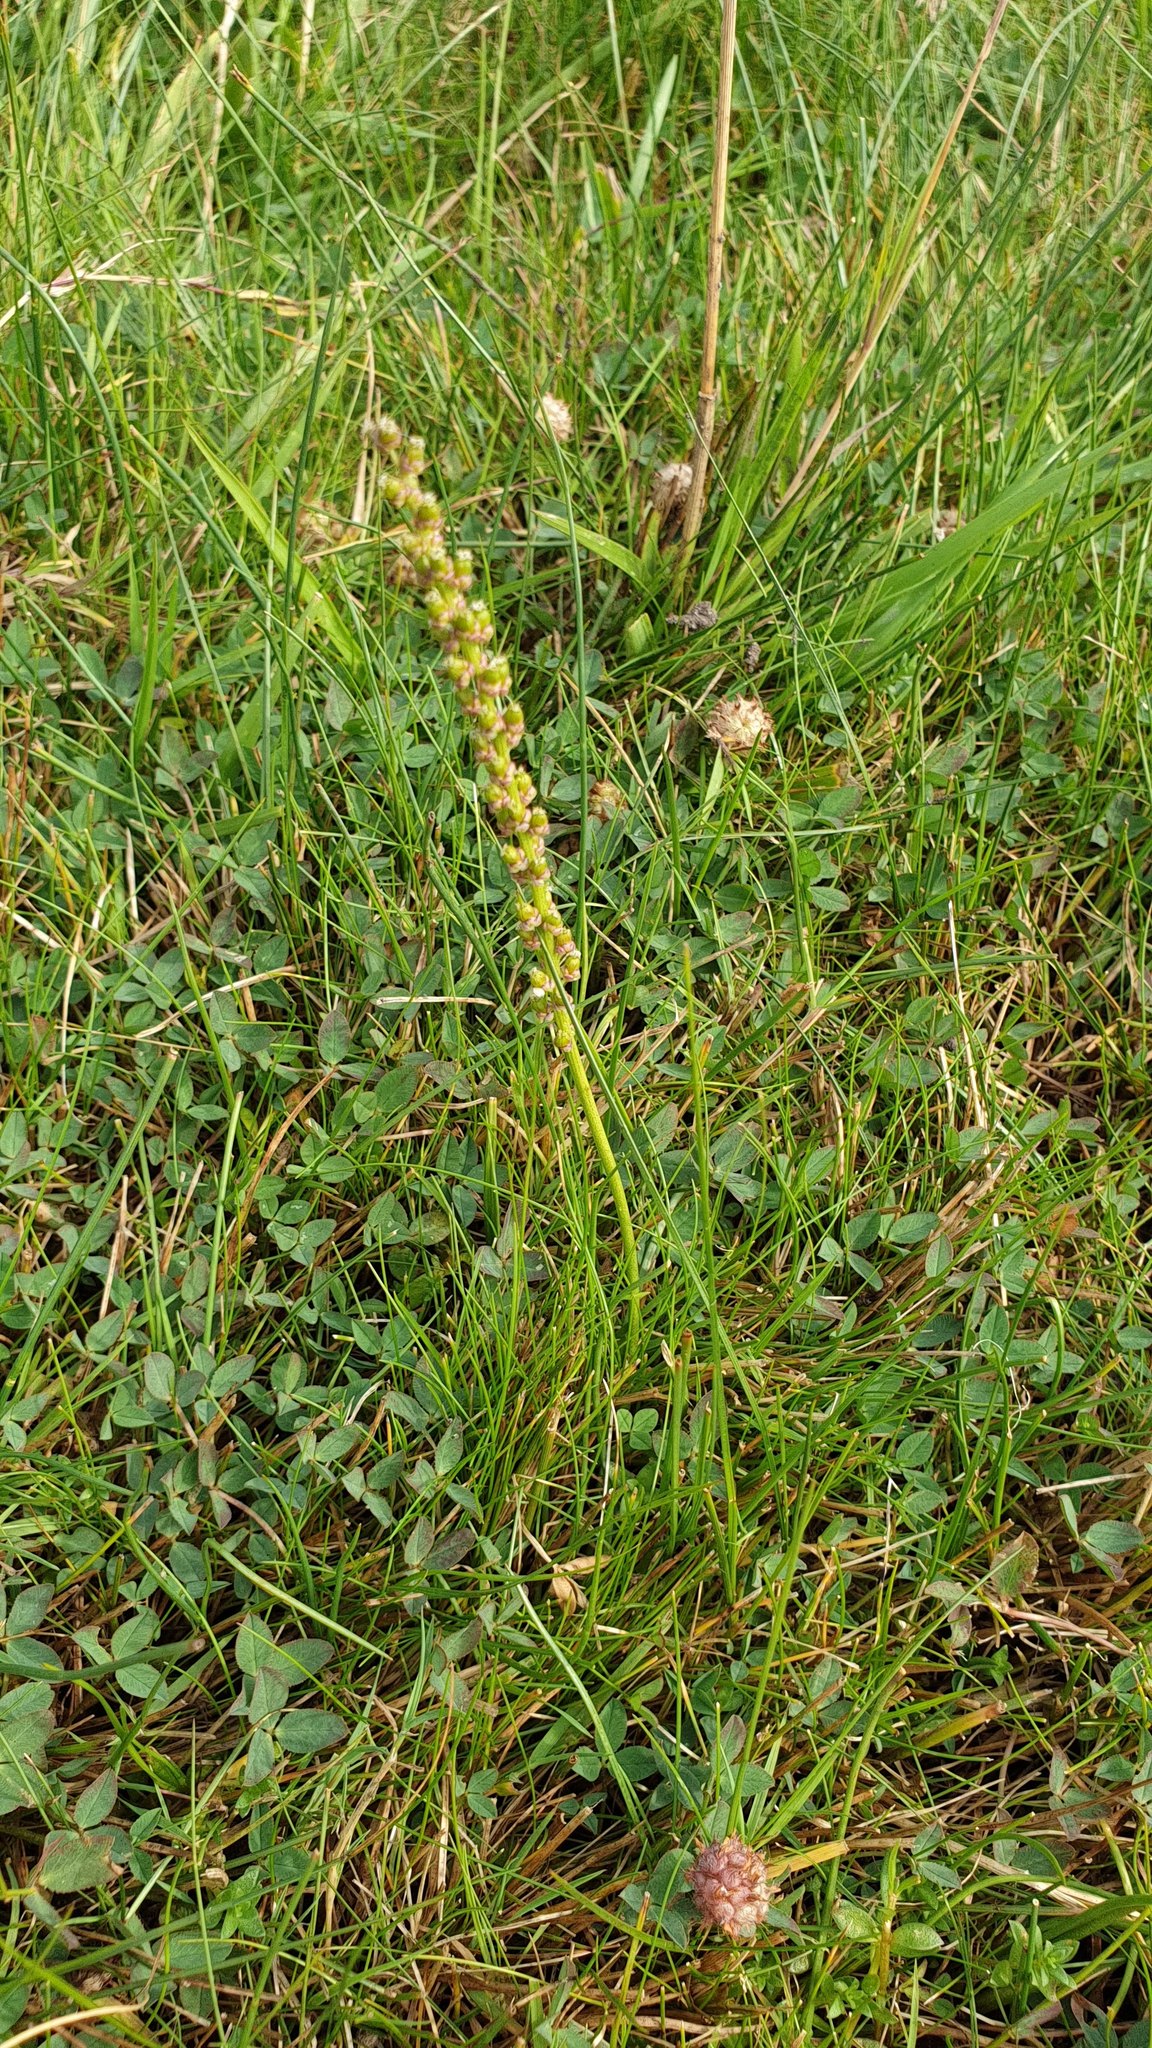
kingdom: Plantae
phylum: Tracheophyta
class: Liliopsida
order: Alismatales
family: Juncaginaceae
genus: Triglochin
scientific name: Triglochin maritima
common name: Sea arrowgrass
